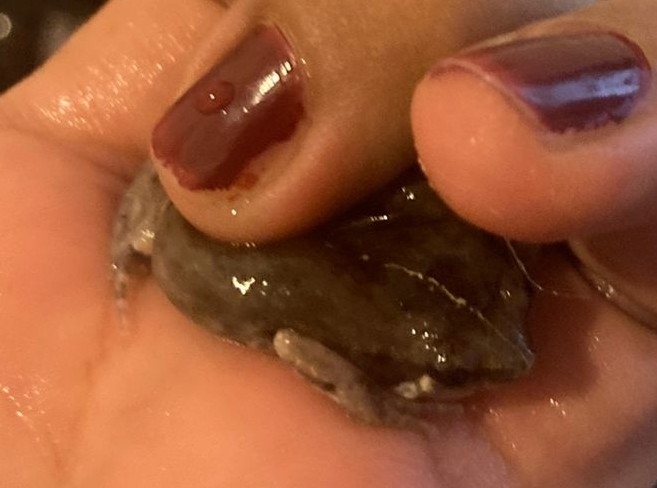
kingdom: Animalia
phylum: Chordata
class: Amphibia
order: Anura
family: Microhylidae
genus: Hypopachus
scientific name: Hypopachus variolosus
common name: Sheep frog
